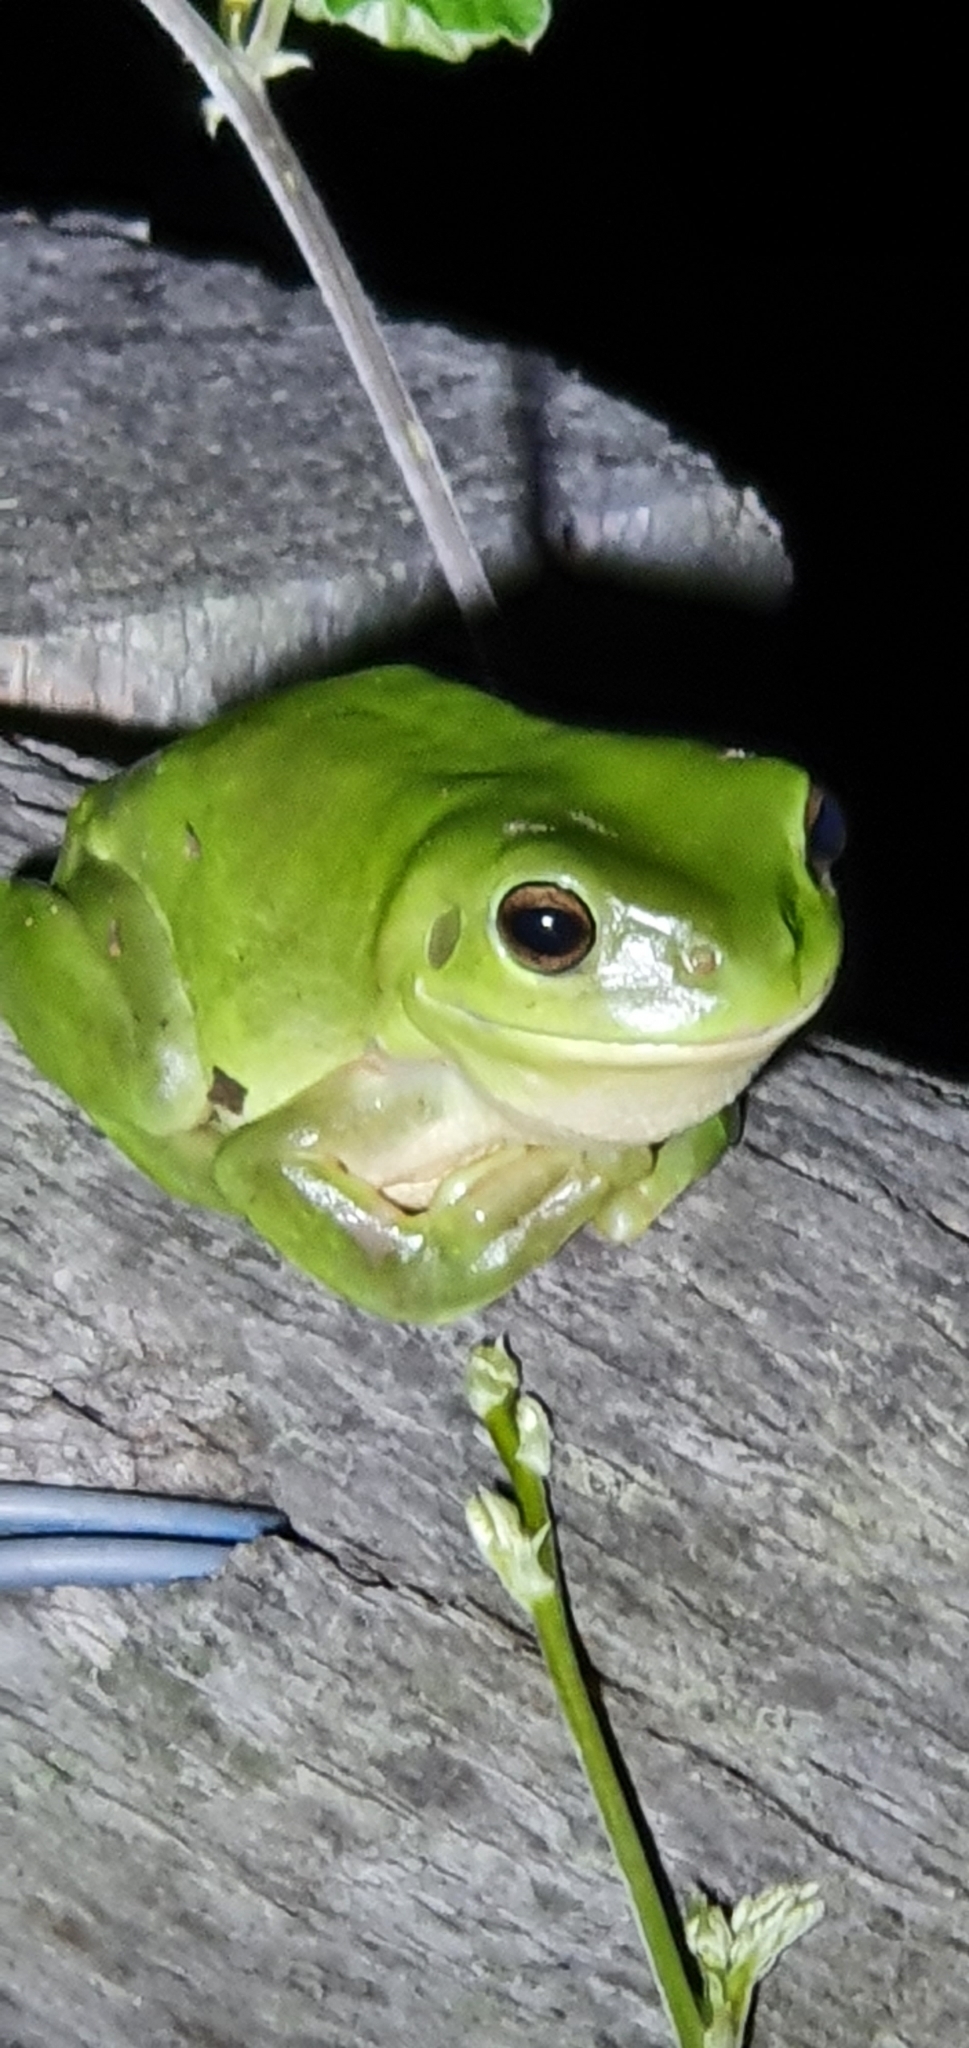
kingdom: Animalia
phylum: Chordata
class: Amphibia
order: Anura
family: Pelodryadidae
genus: Ranoidea
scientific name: Ranoidea caerulea
